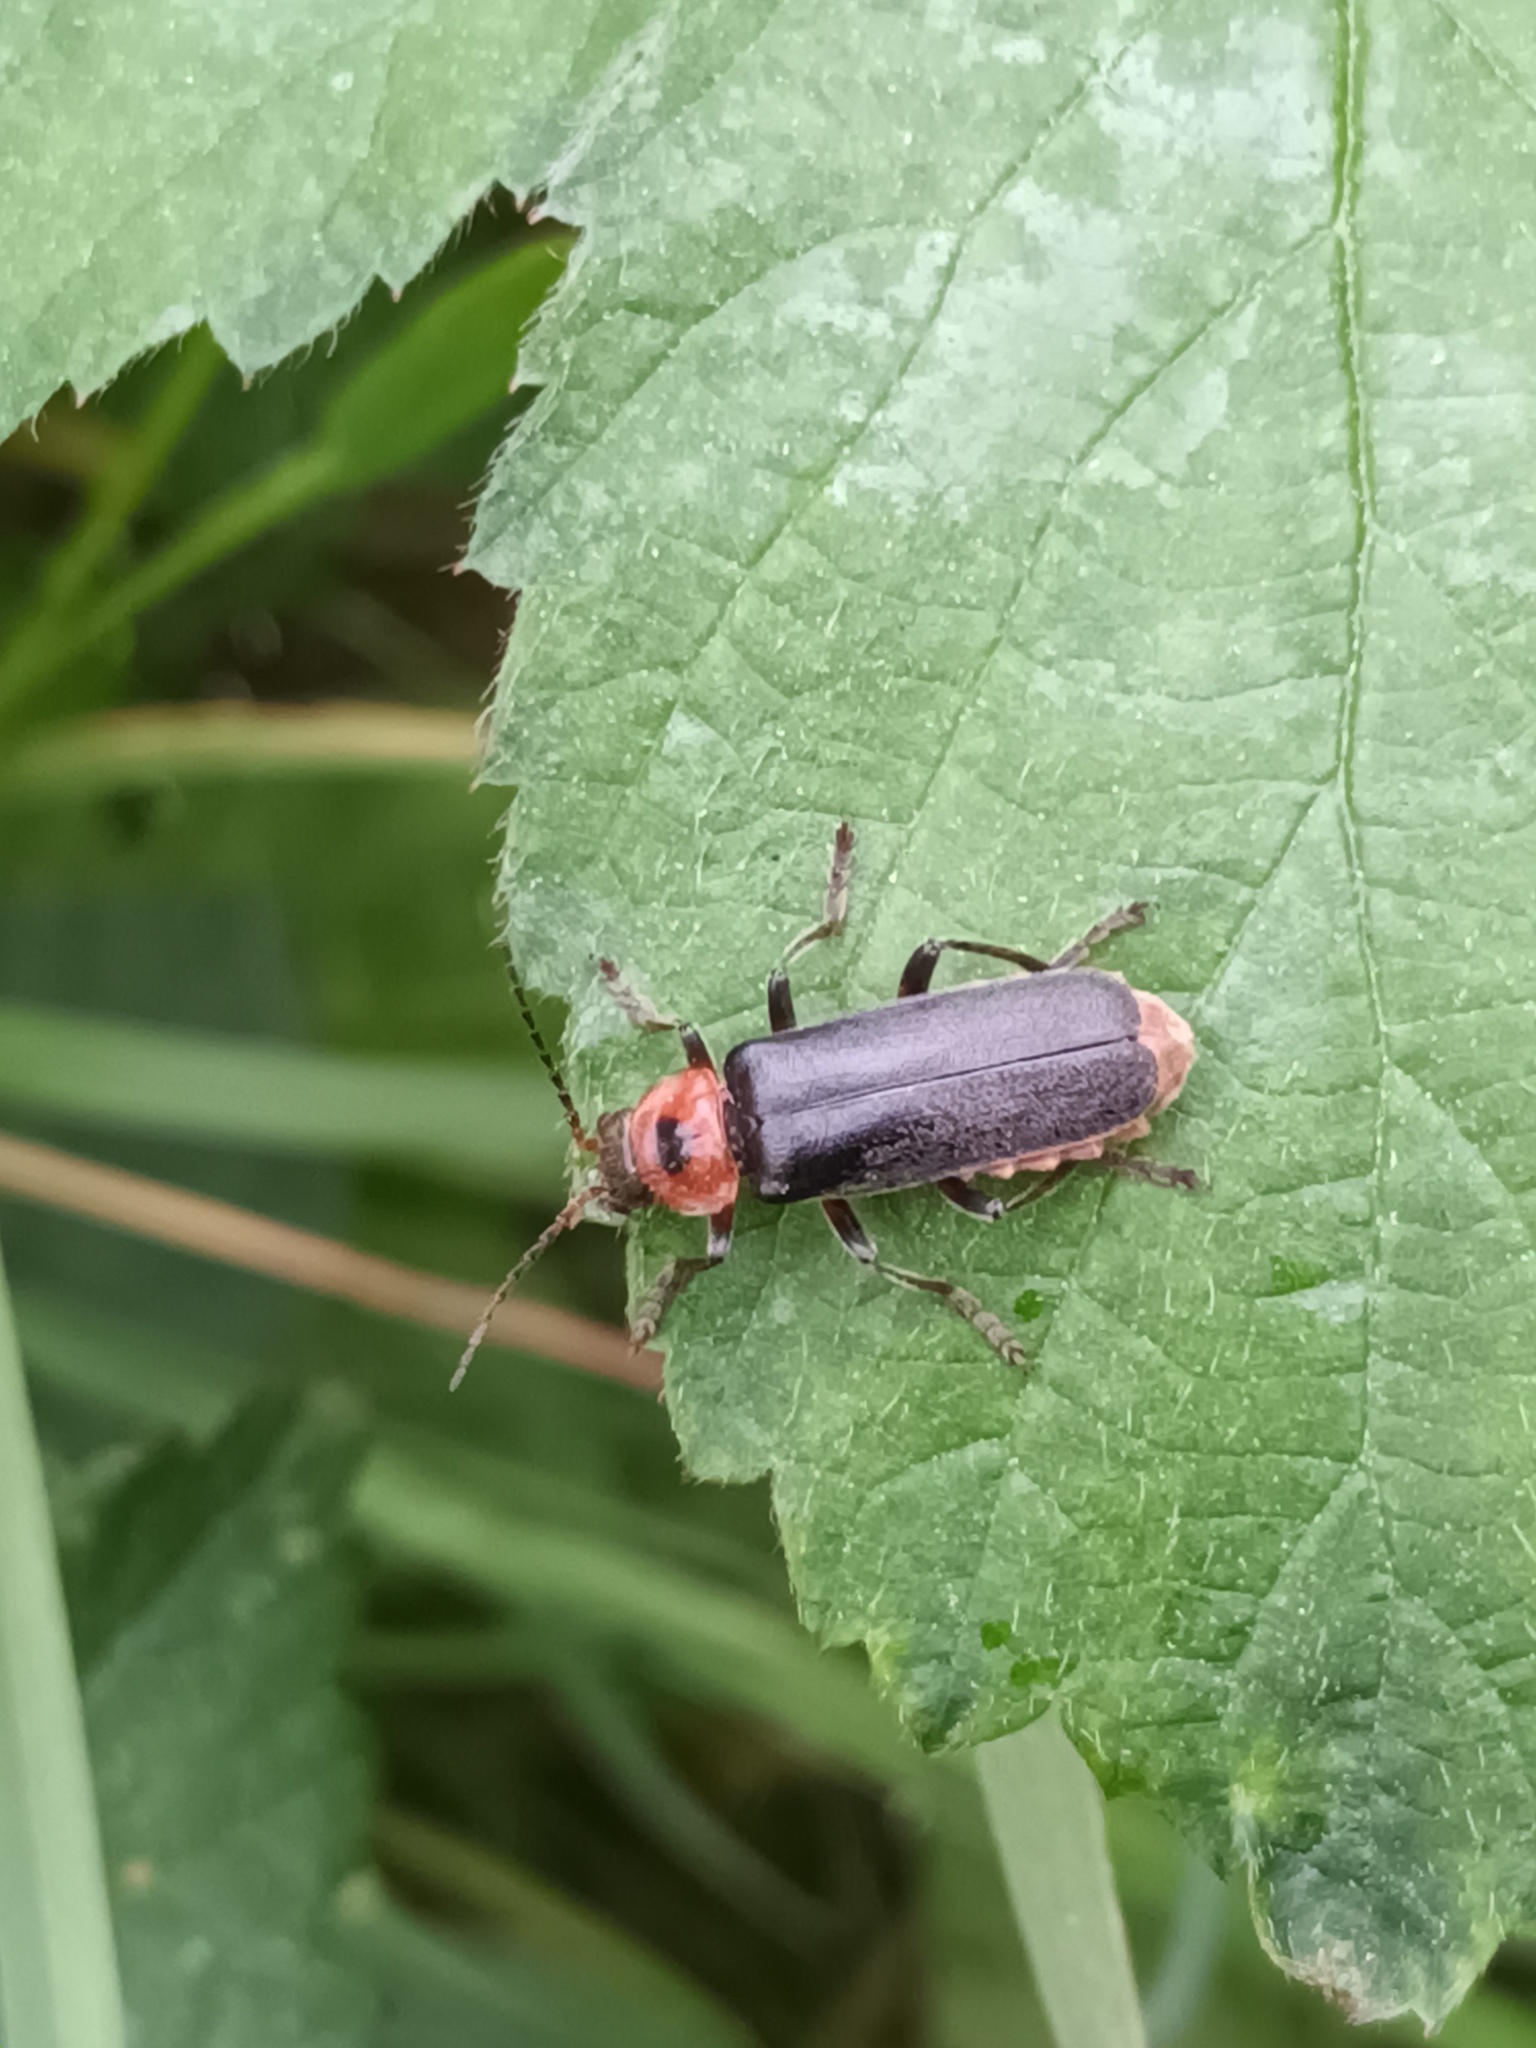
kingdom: Animalia
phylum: Arthropoda
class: Insecta
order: Coleoptera
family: Cantharidae
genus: Cantharis
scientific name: Cantharis rustica
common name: Soldier beetle
